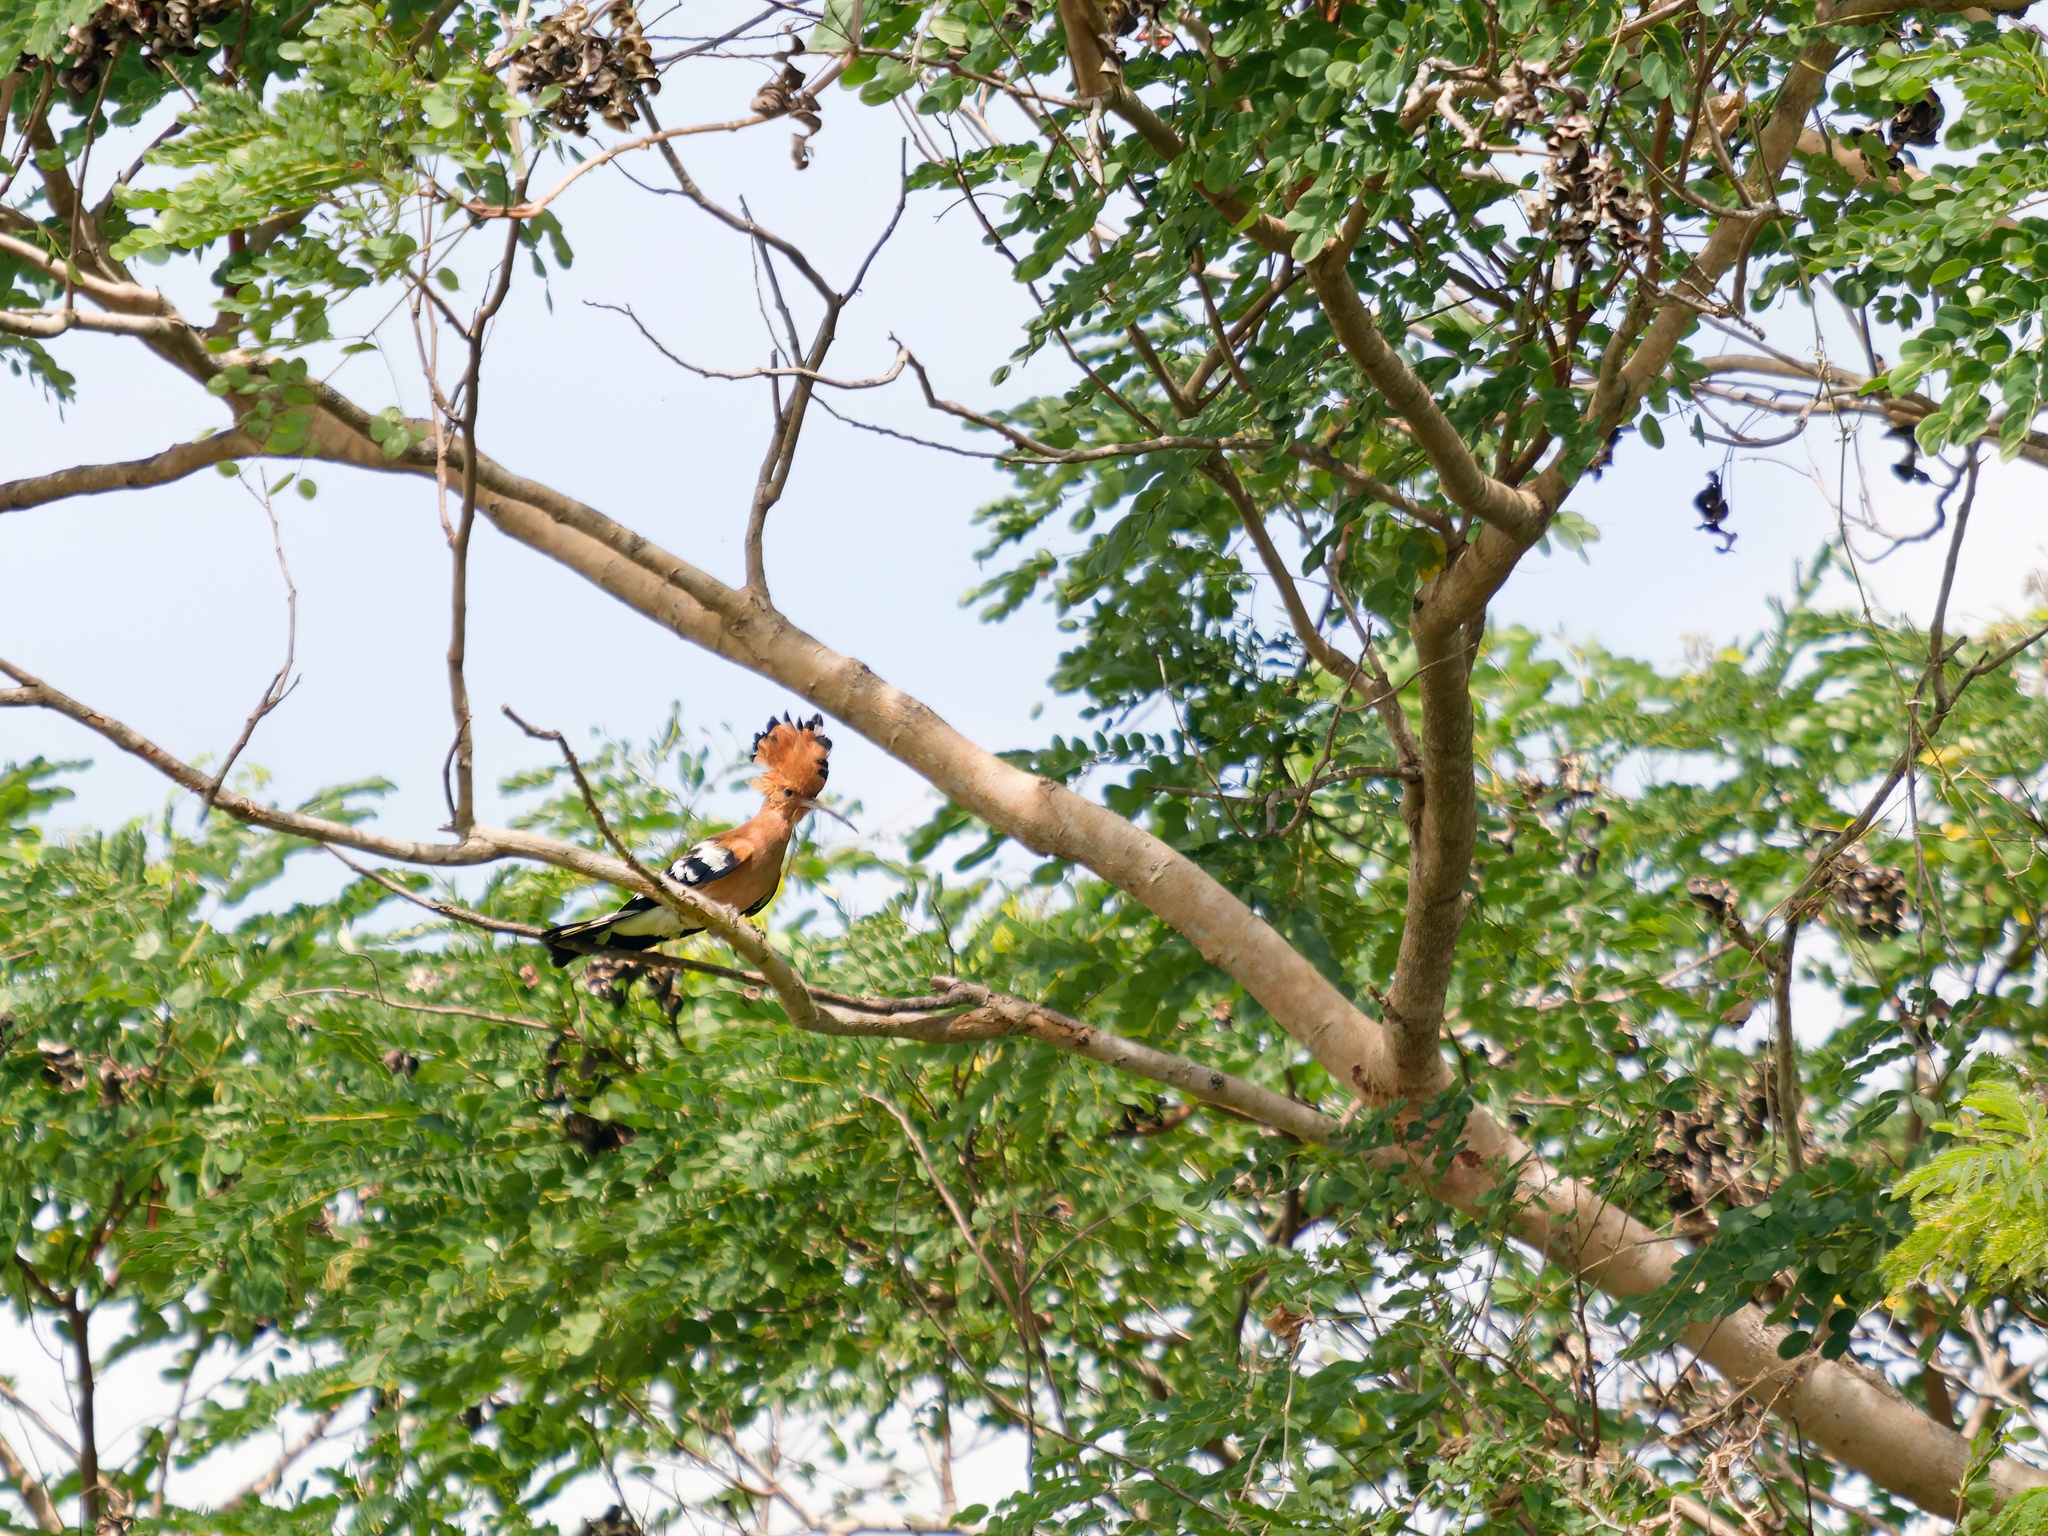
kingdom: Animalia
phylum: Chordata
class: Aves
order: Bucerotiformes
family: Upupidae
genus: Upupa
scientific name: Upupa epops
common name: Eurasian hoopoe
